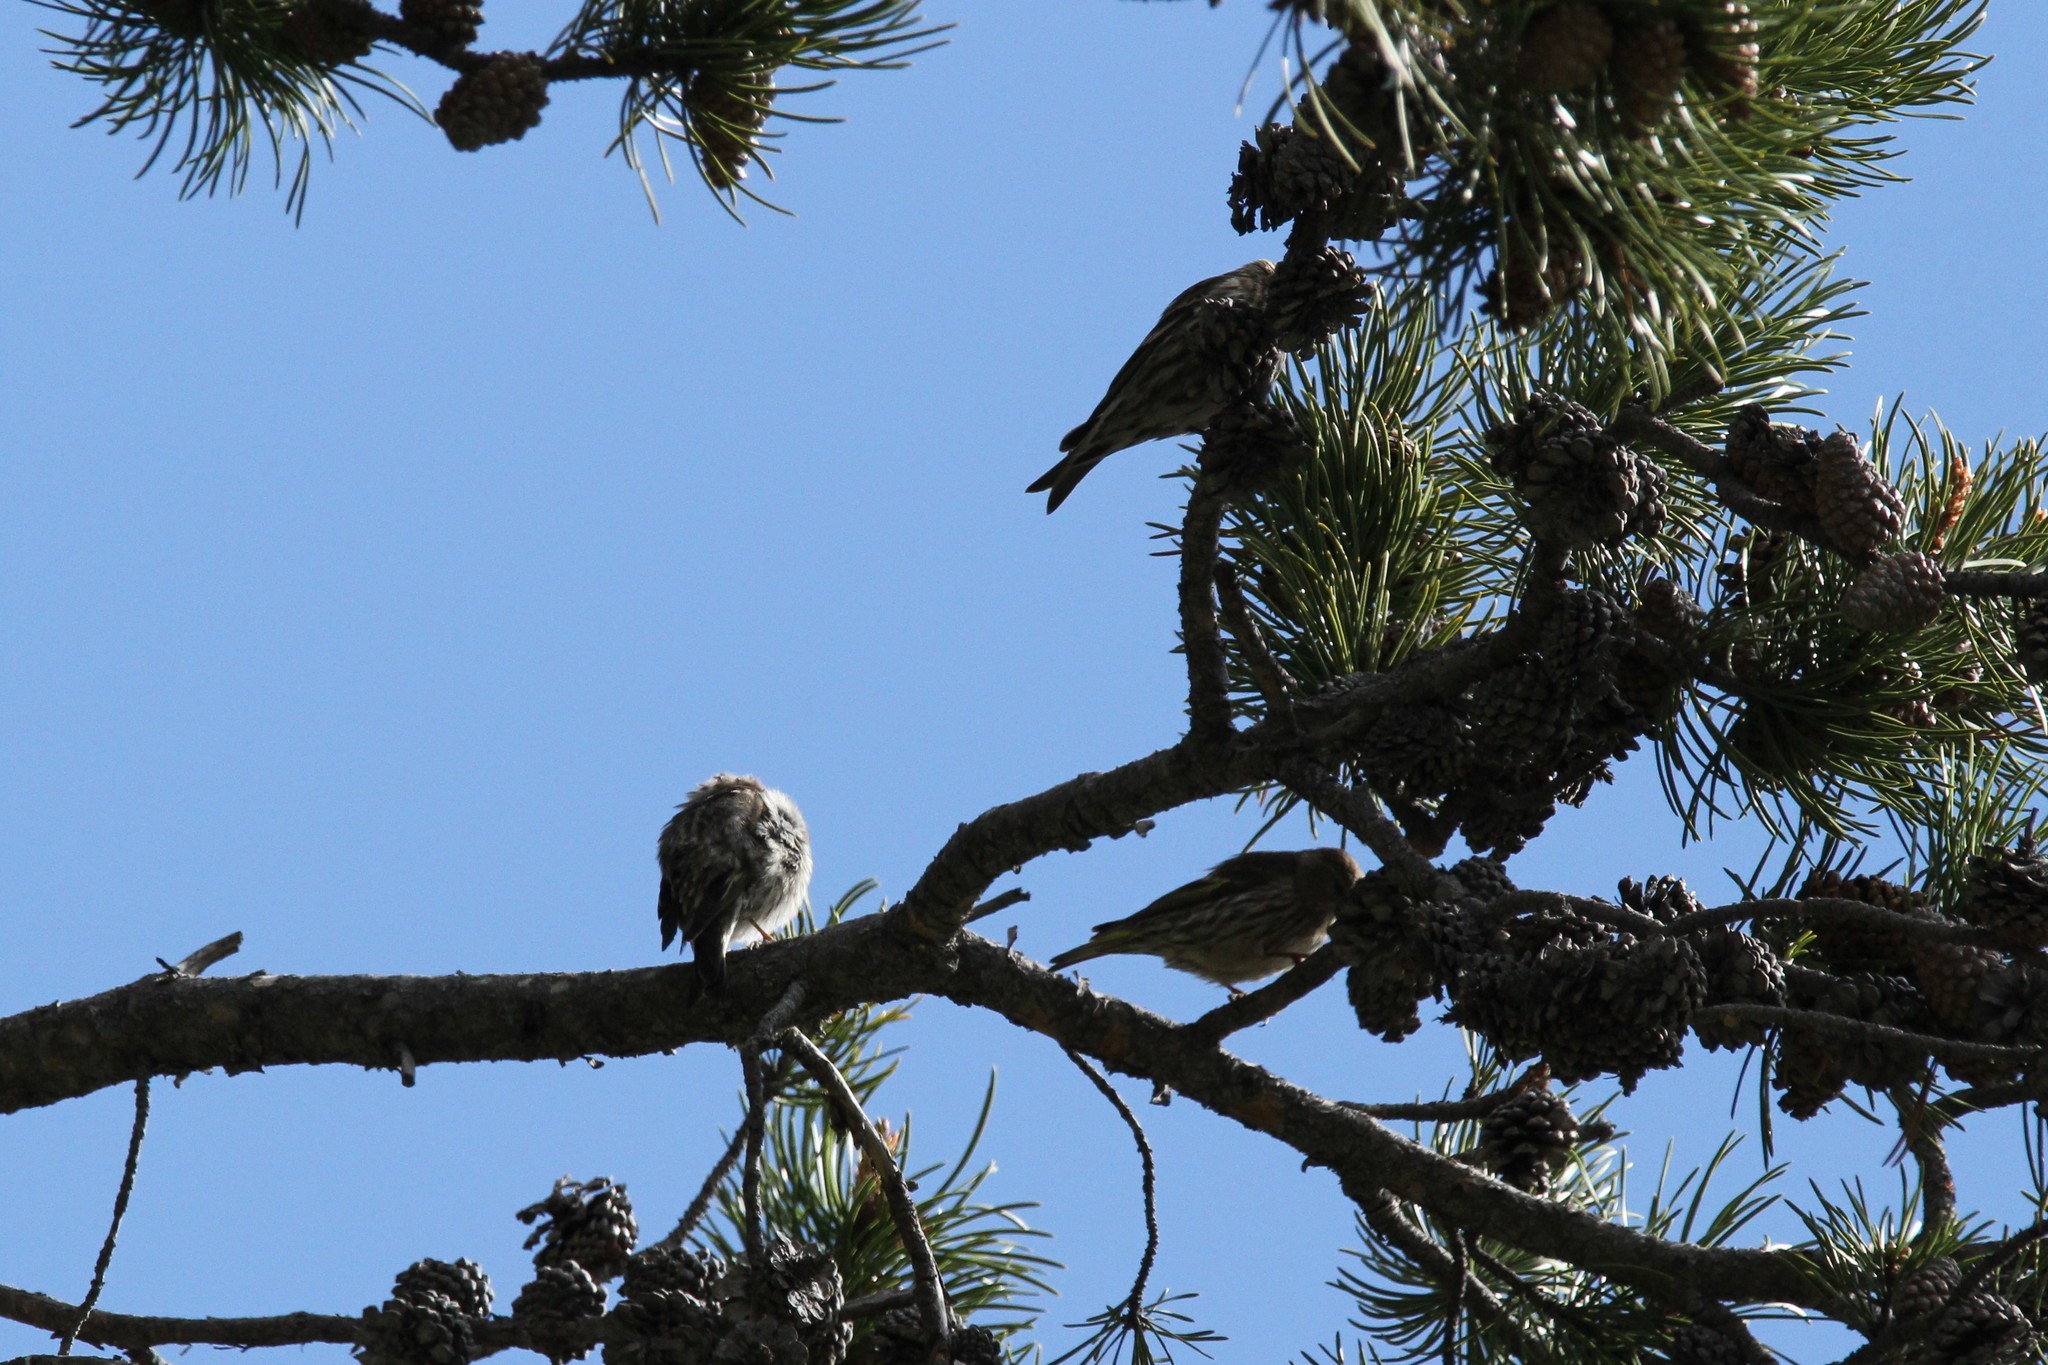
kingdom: Animalia
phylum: Chordata
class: Aves
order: Passeriformes
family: Fringillidae
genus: Spinus
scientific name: Spinus pinus
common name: Pine siskin
